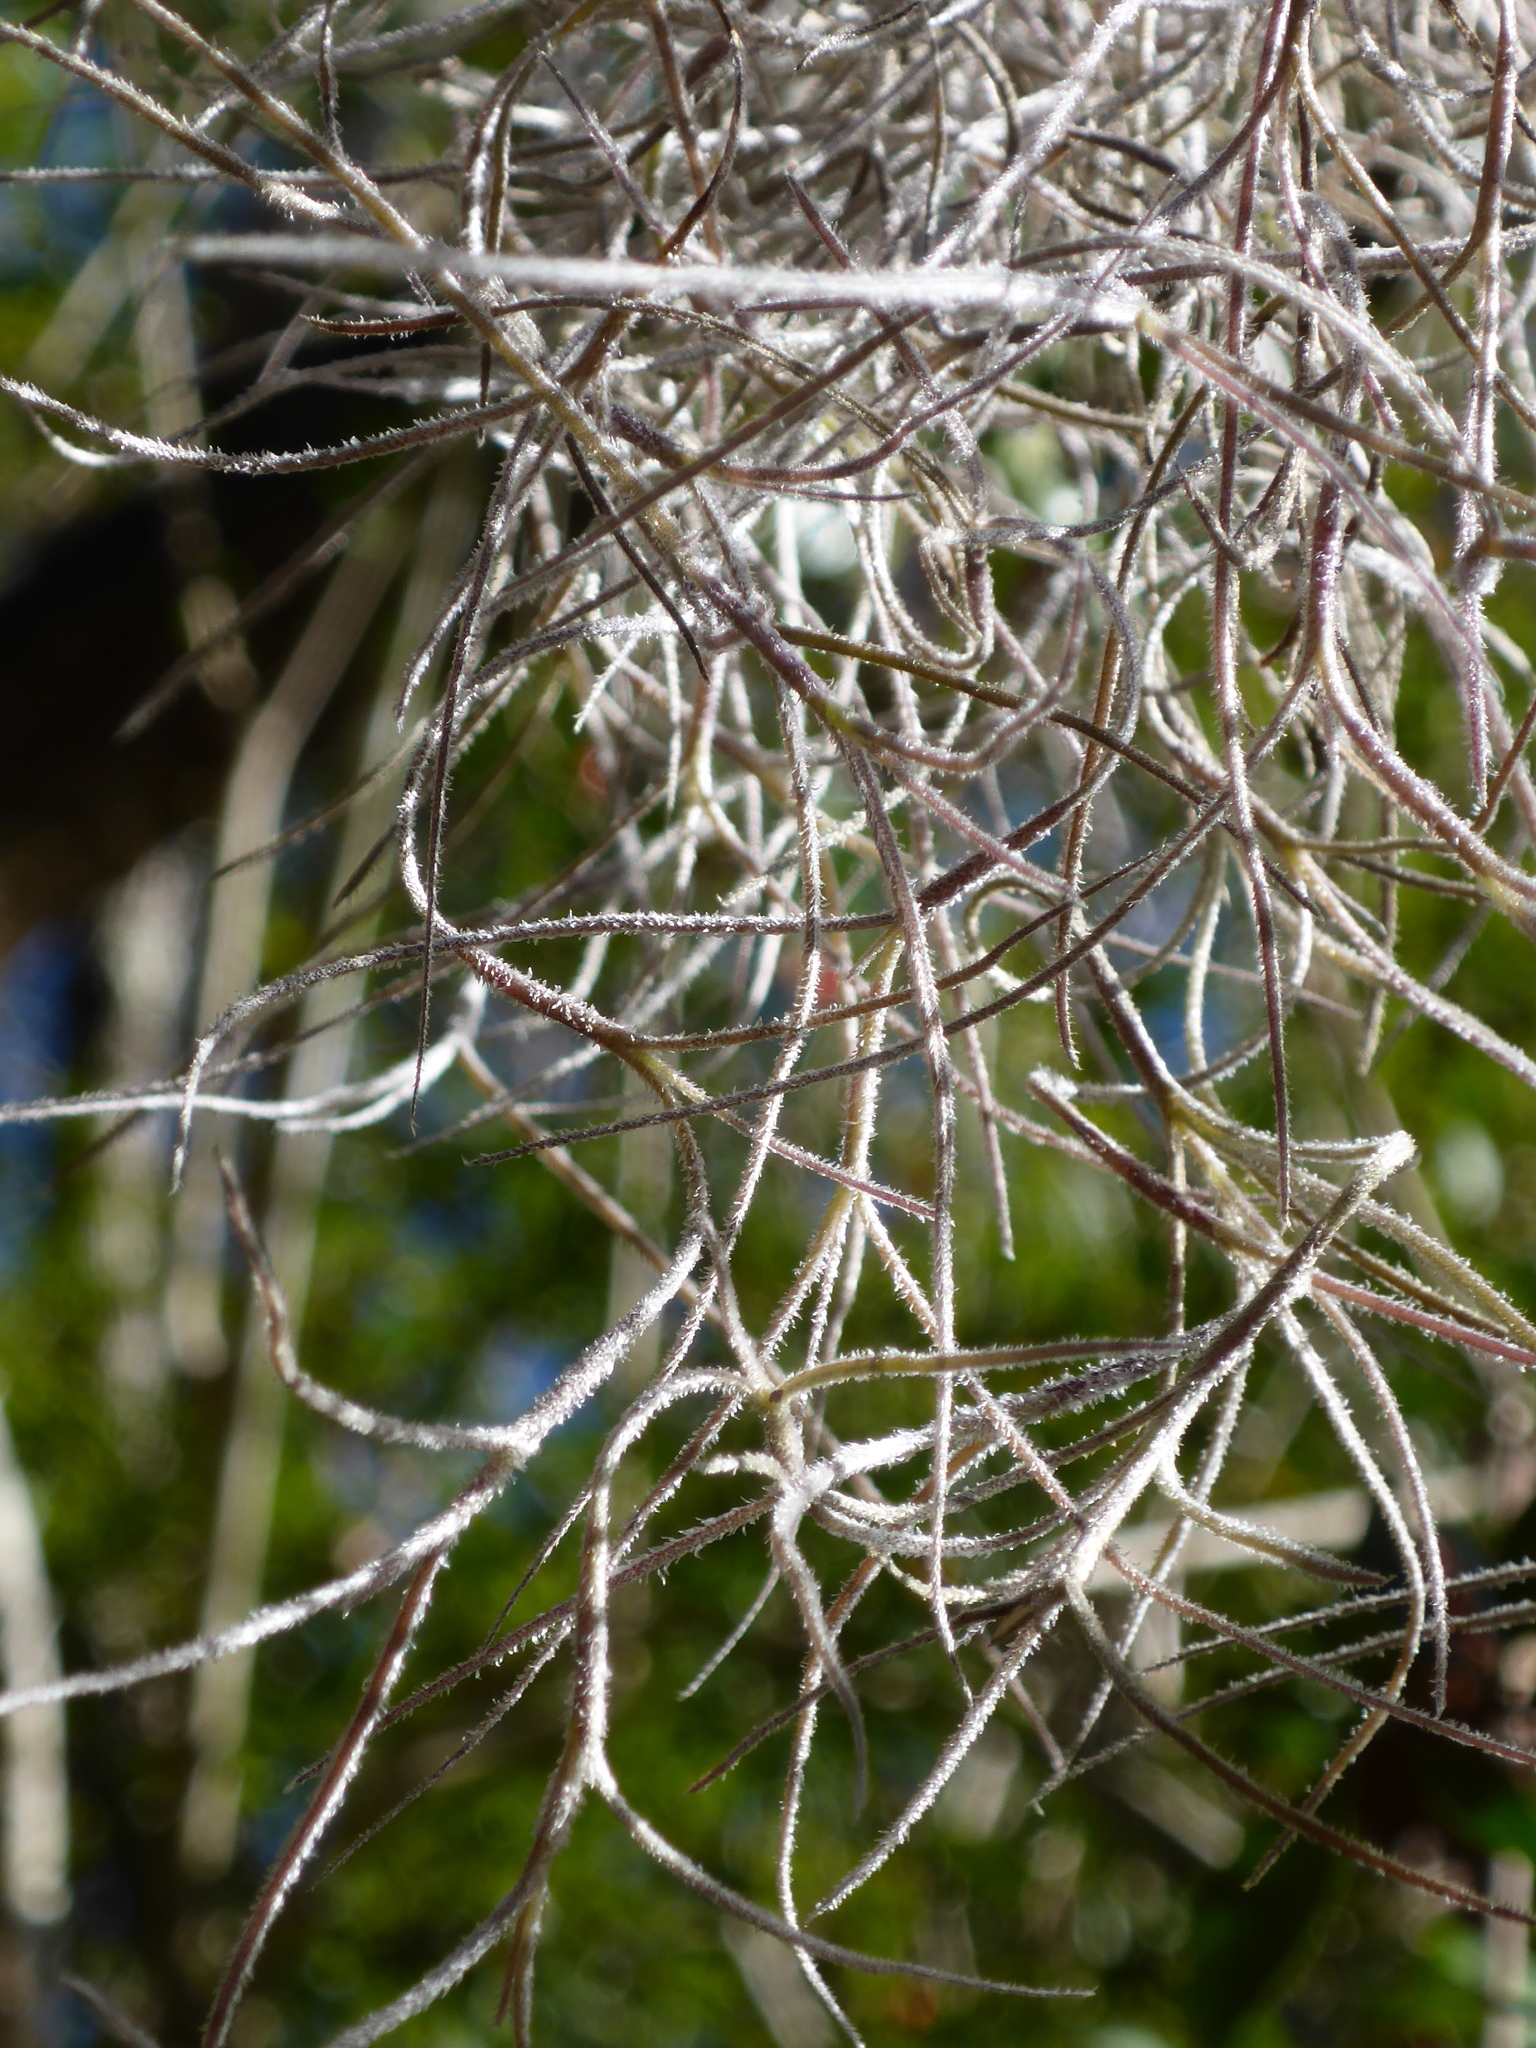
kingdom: Plantae
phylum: Tracheophyta
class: Liliopsida
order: Poales
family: Bromeliaceae
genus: Tillandsia
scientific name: Tillandsia usneoides
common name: Spanish moss
